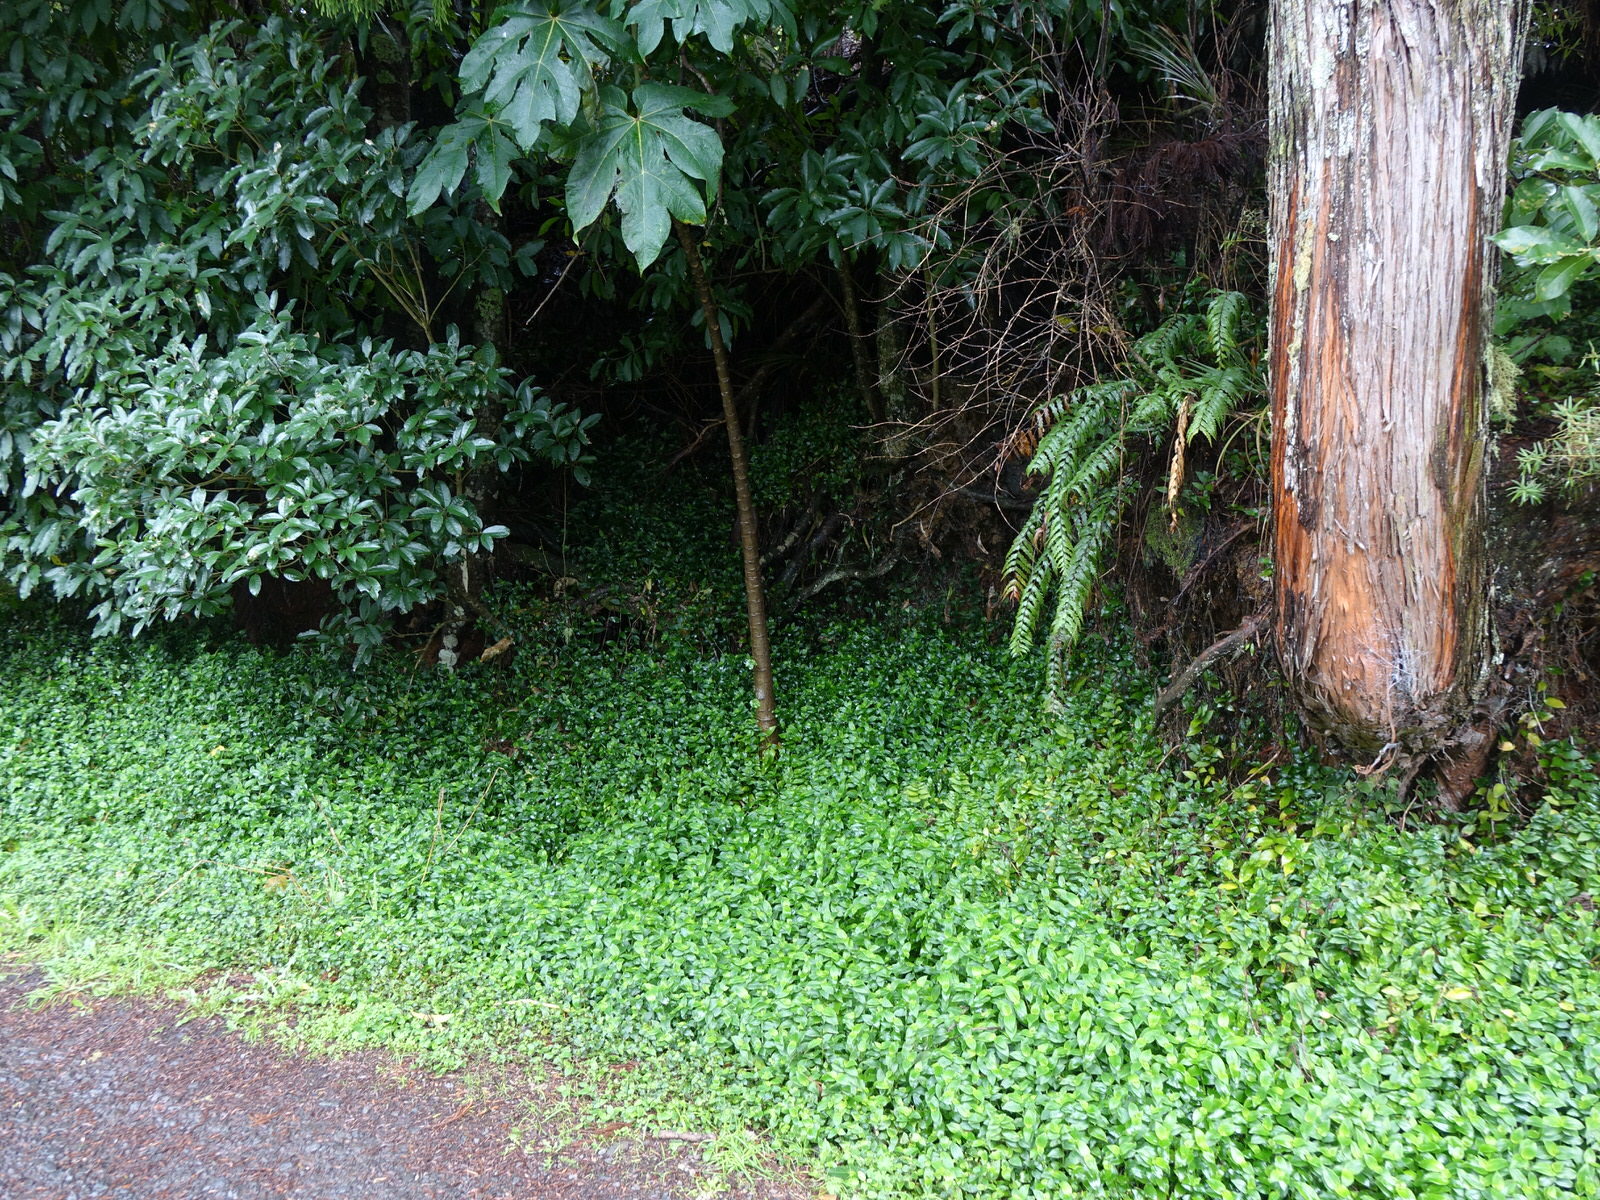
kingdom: Plantae
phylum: Tracheophyta
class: Liliopsida
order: Commelinales
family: Commelinaceae
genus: Tradescantia
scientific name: Tradescantia fluminensis
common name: Wandering-jew
